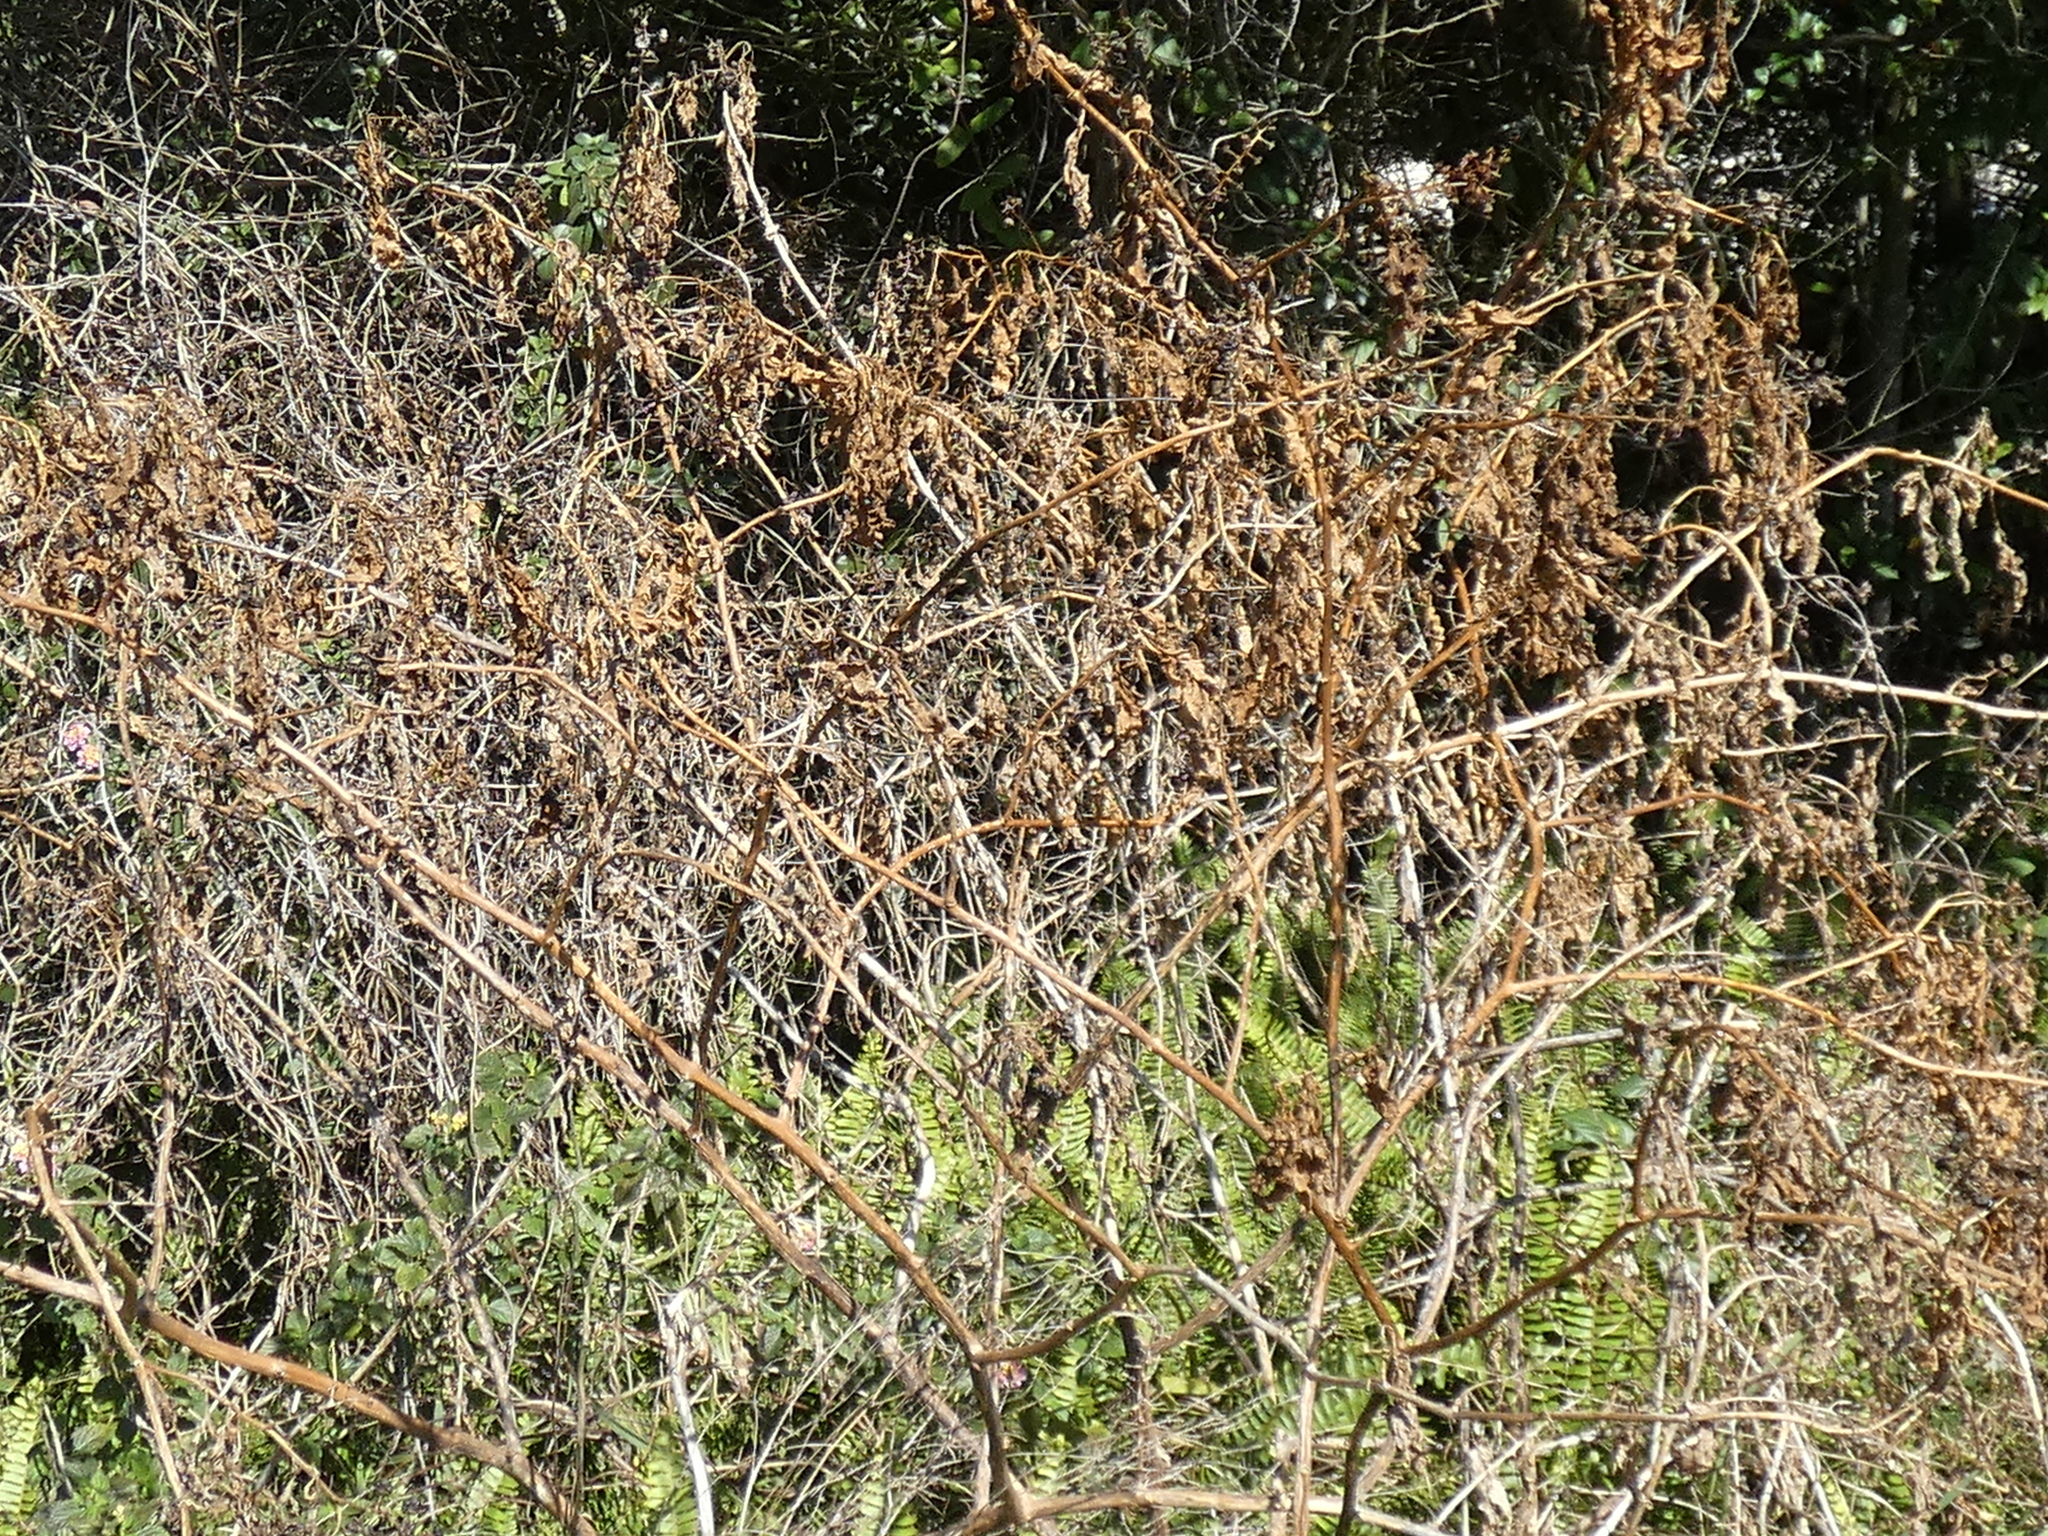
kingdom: Plantae
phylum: Tracheophyta
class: Magnoliopsida
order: Caryophyllales
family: Phytolaccaceae
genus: Phytolacca
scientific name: Phytolacca americana
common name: American pokeweed
